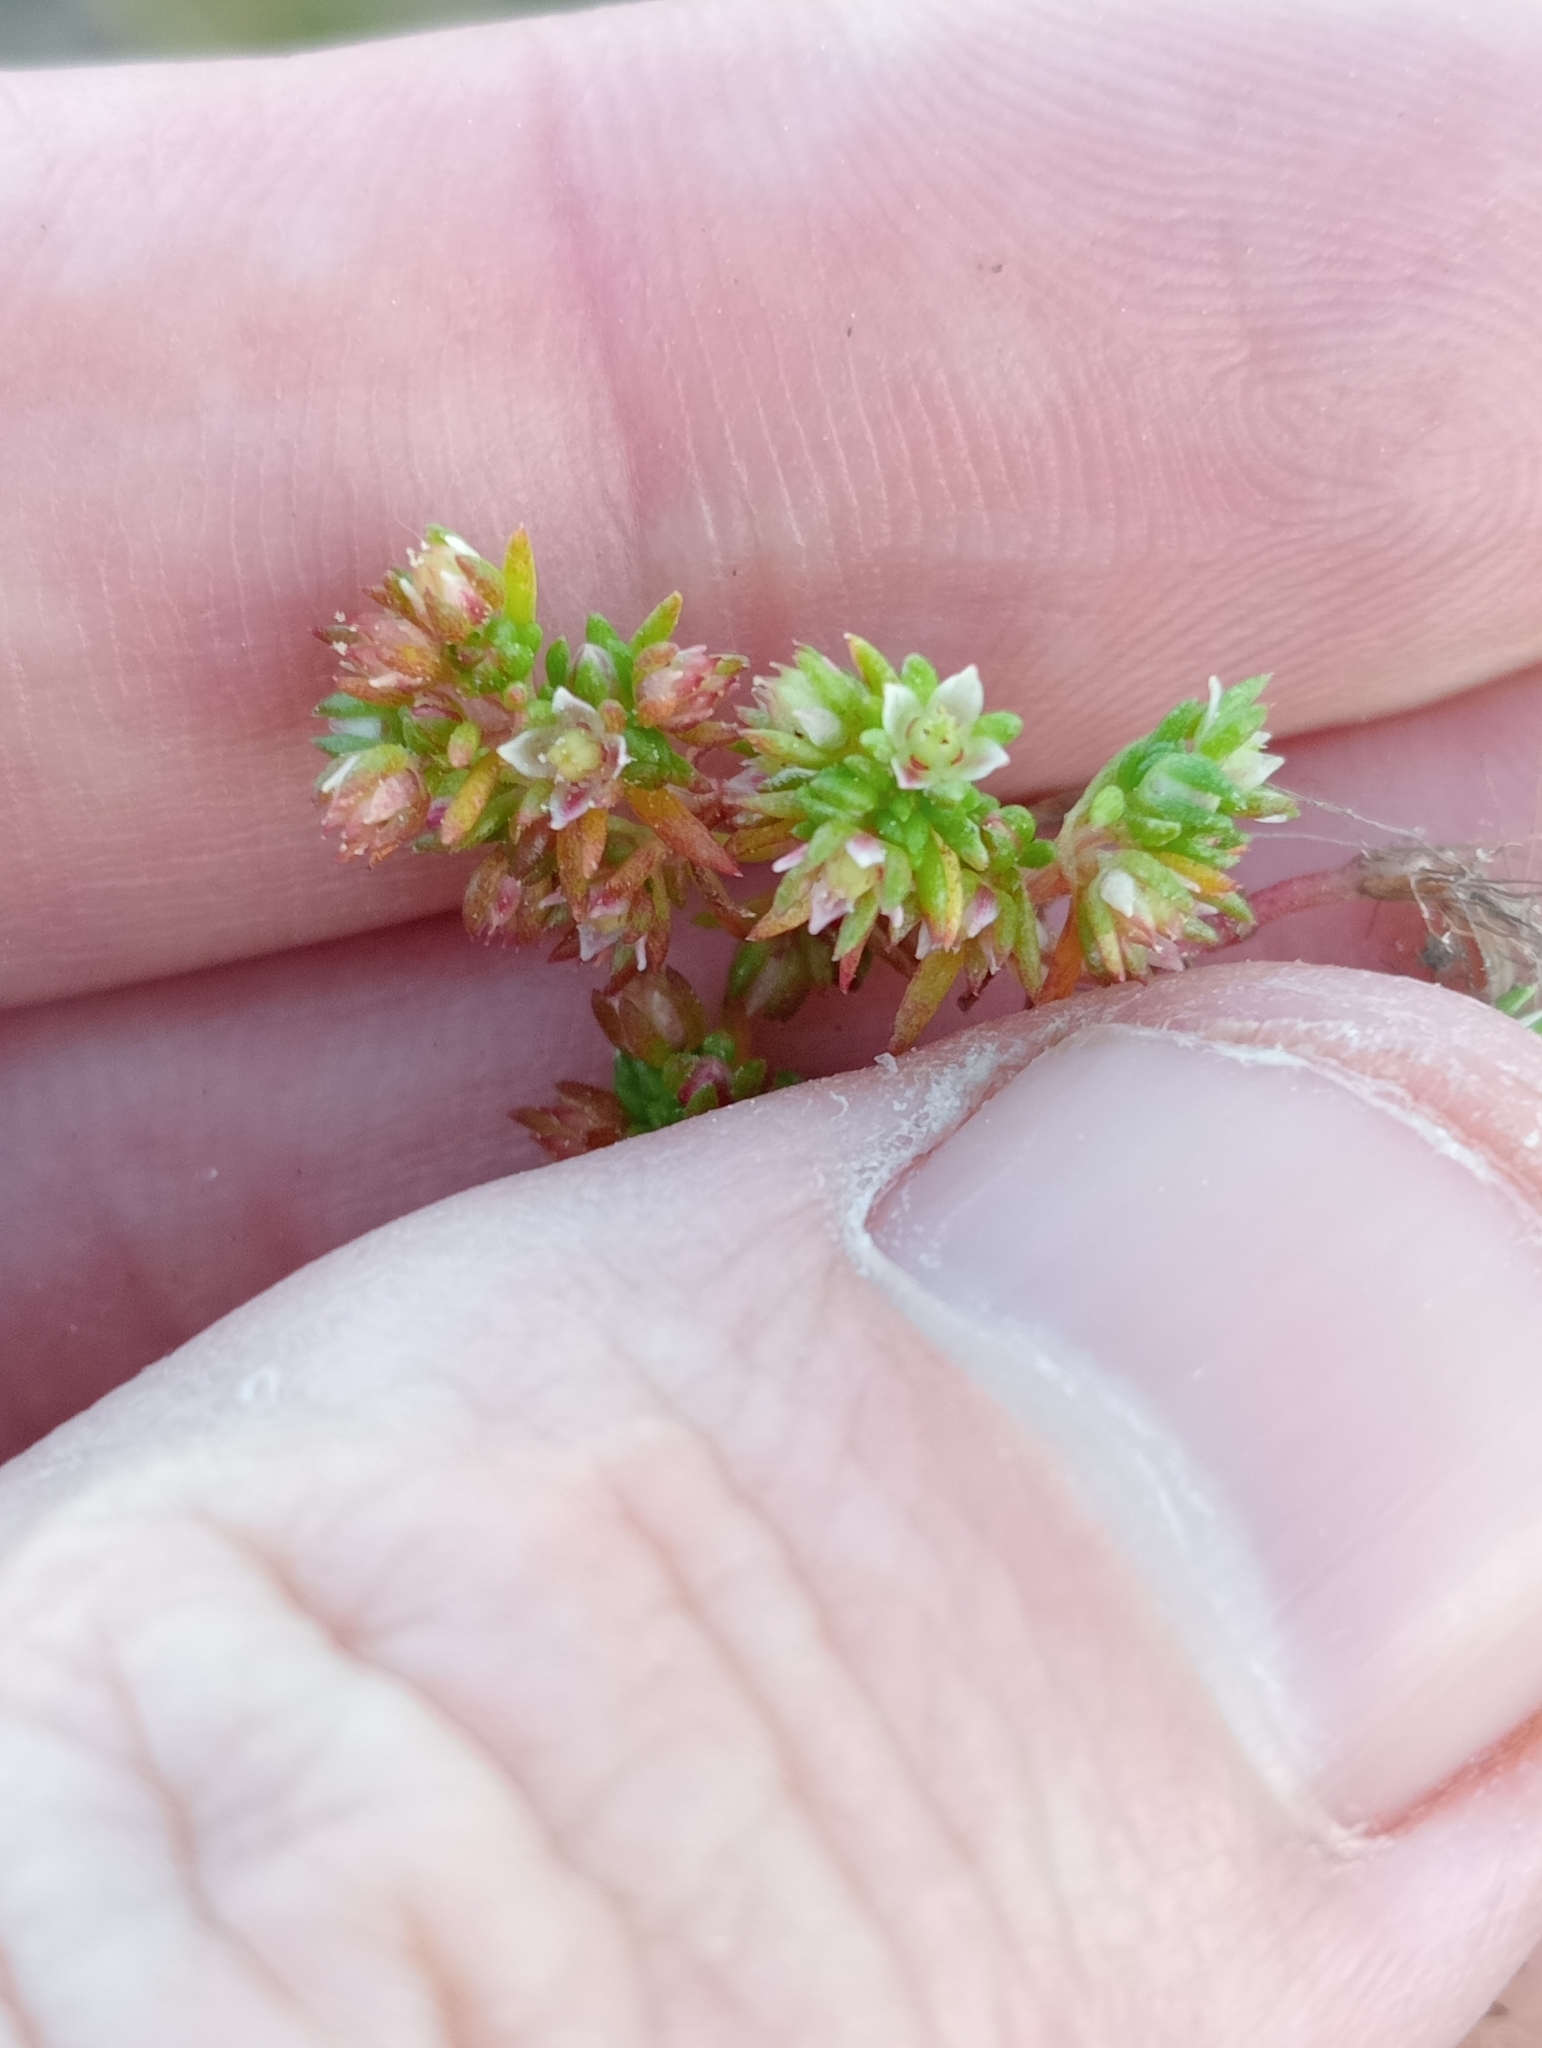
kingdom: Plantae
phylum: Tracheophyta
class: Magnoliopsida
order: Saxifragales
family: Crassulaceae
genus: Crassula
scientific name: Crassula decumbens
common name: Scilly pigmyweed
